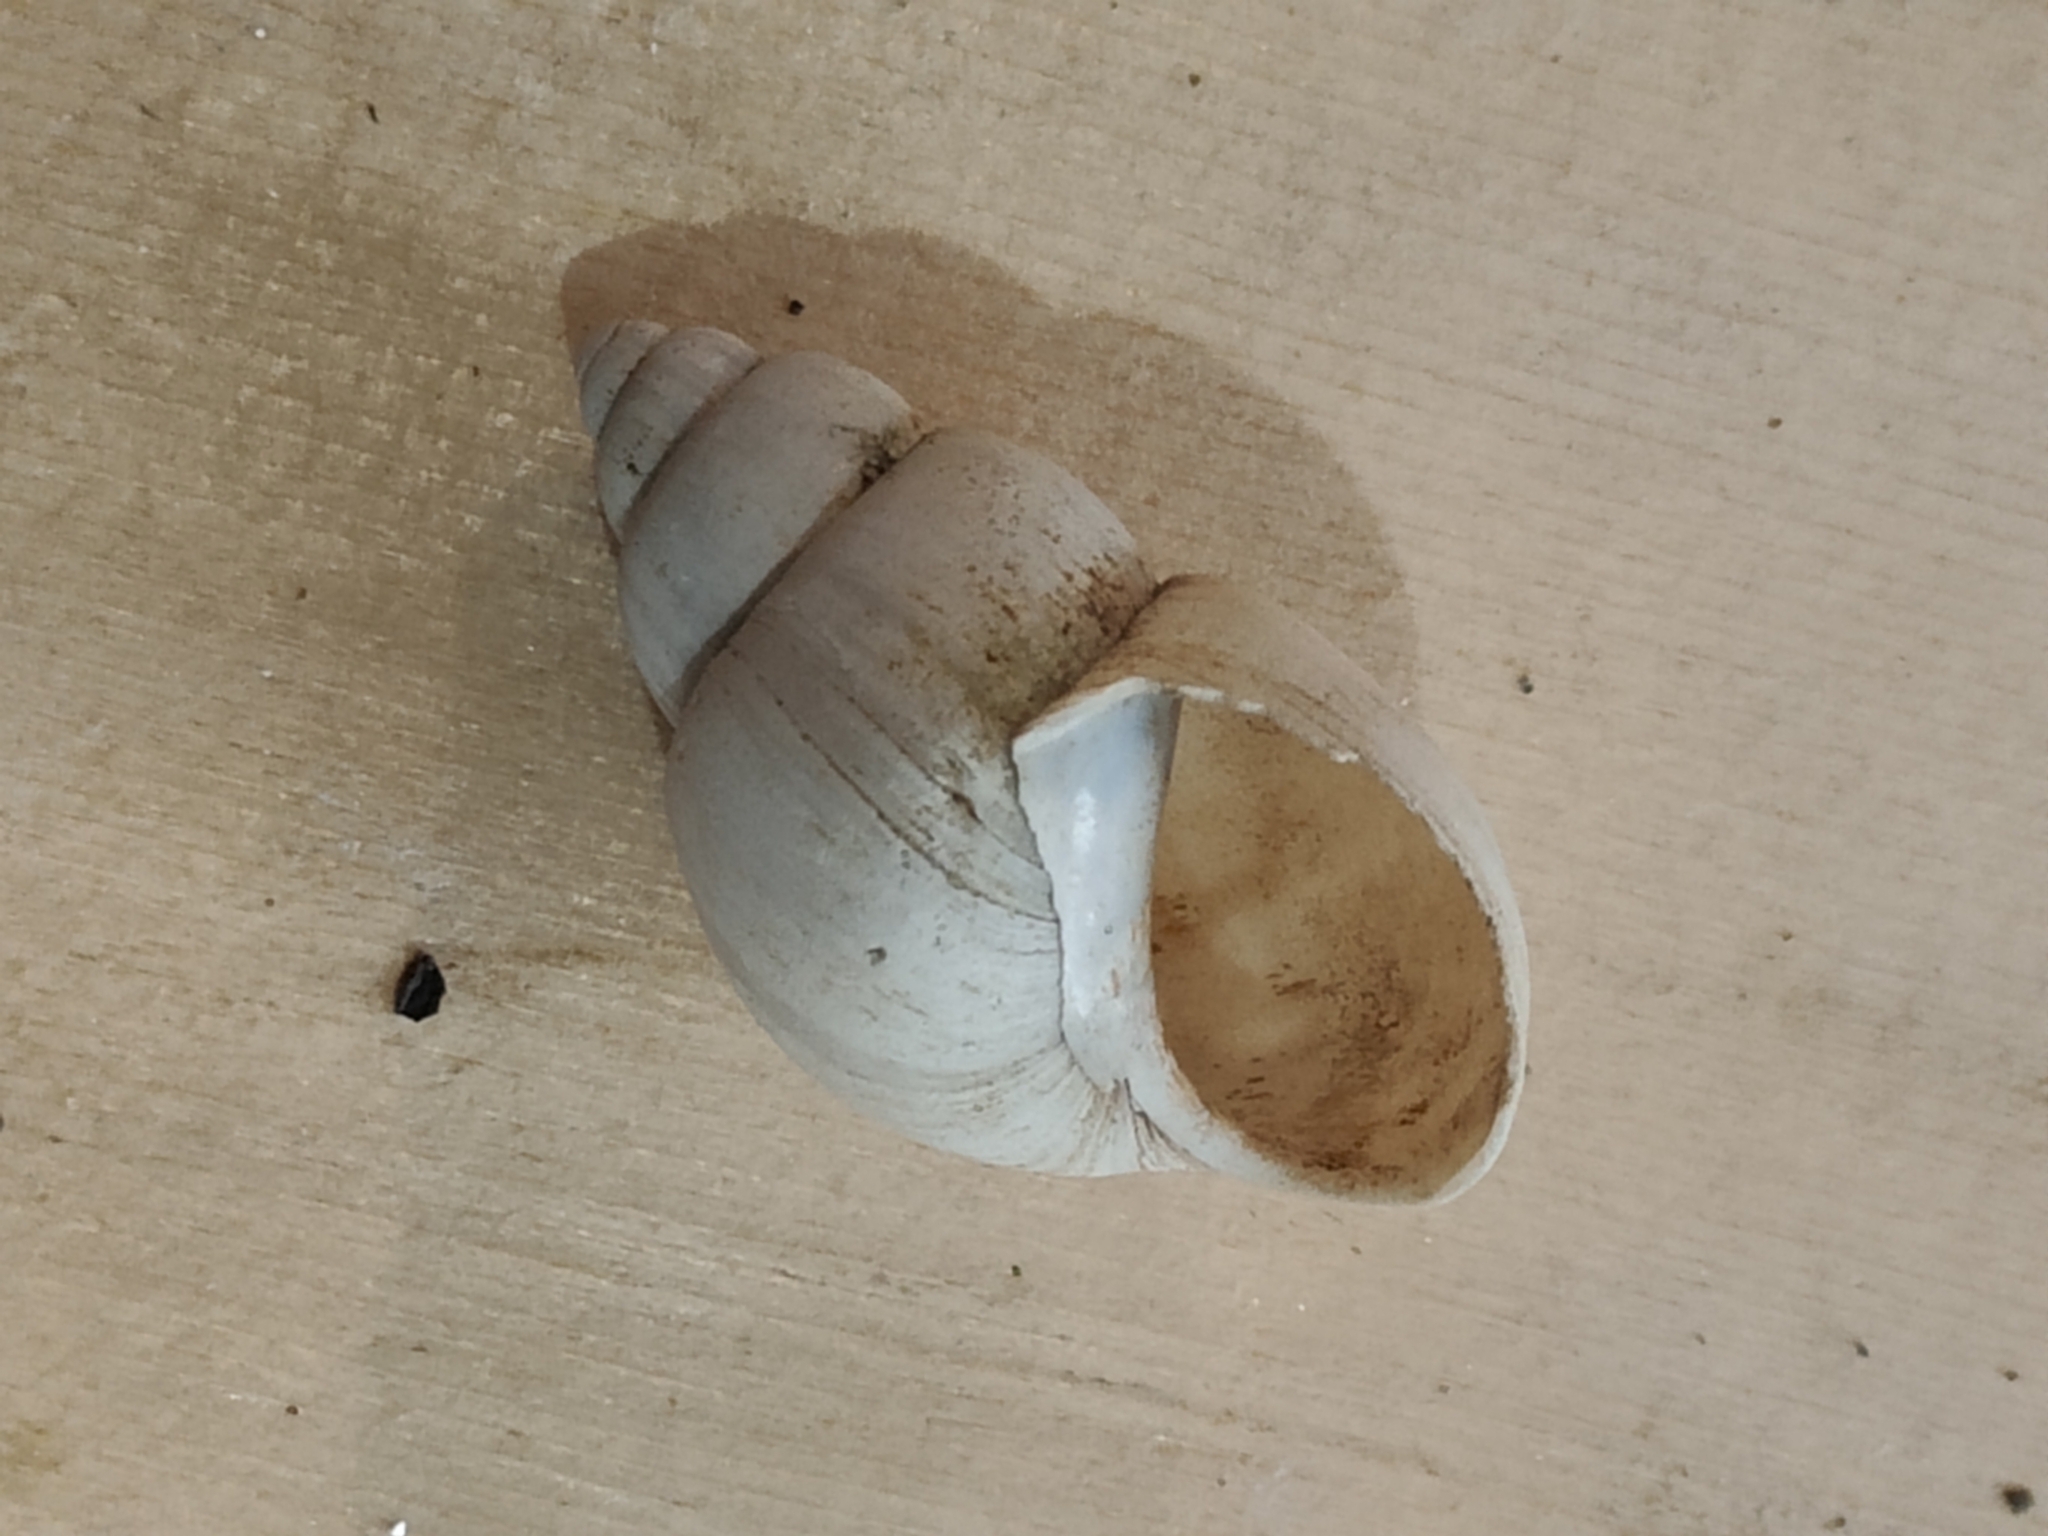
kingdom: Animalia
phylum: Mollusca
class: Gastropoda
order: Architaenioglossa
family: Viviparidae
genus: Campeloma
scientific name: Campeloma decisum
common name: Pointed campeloma
